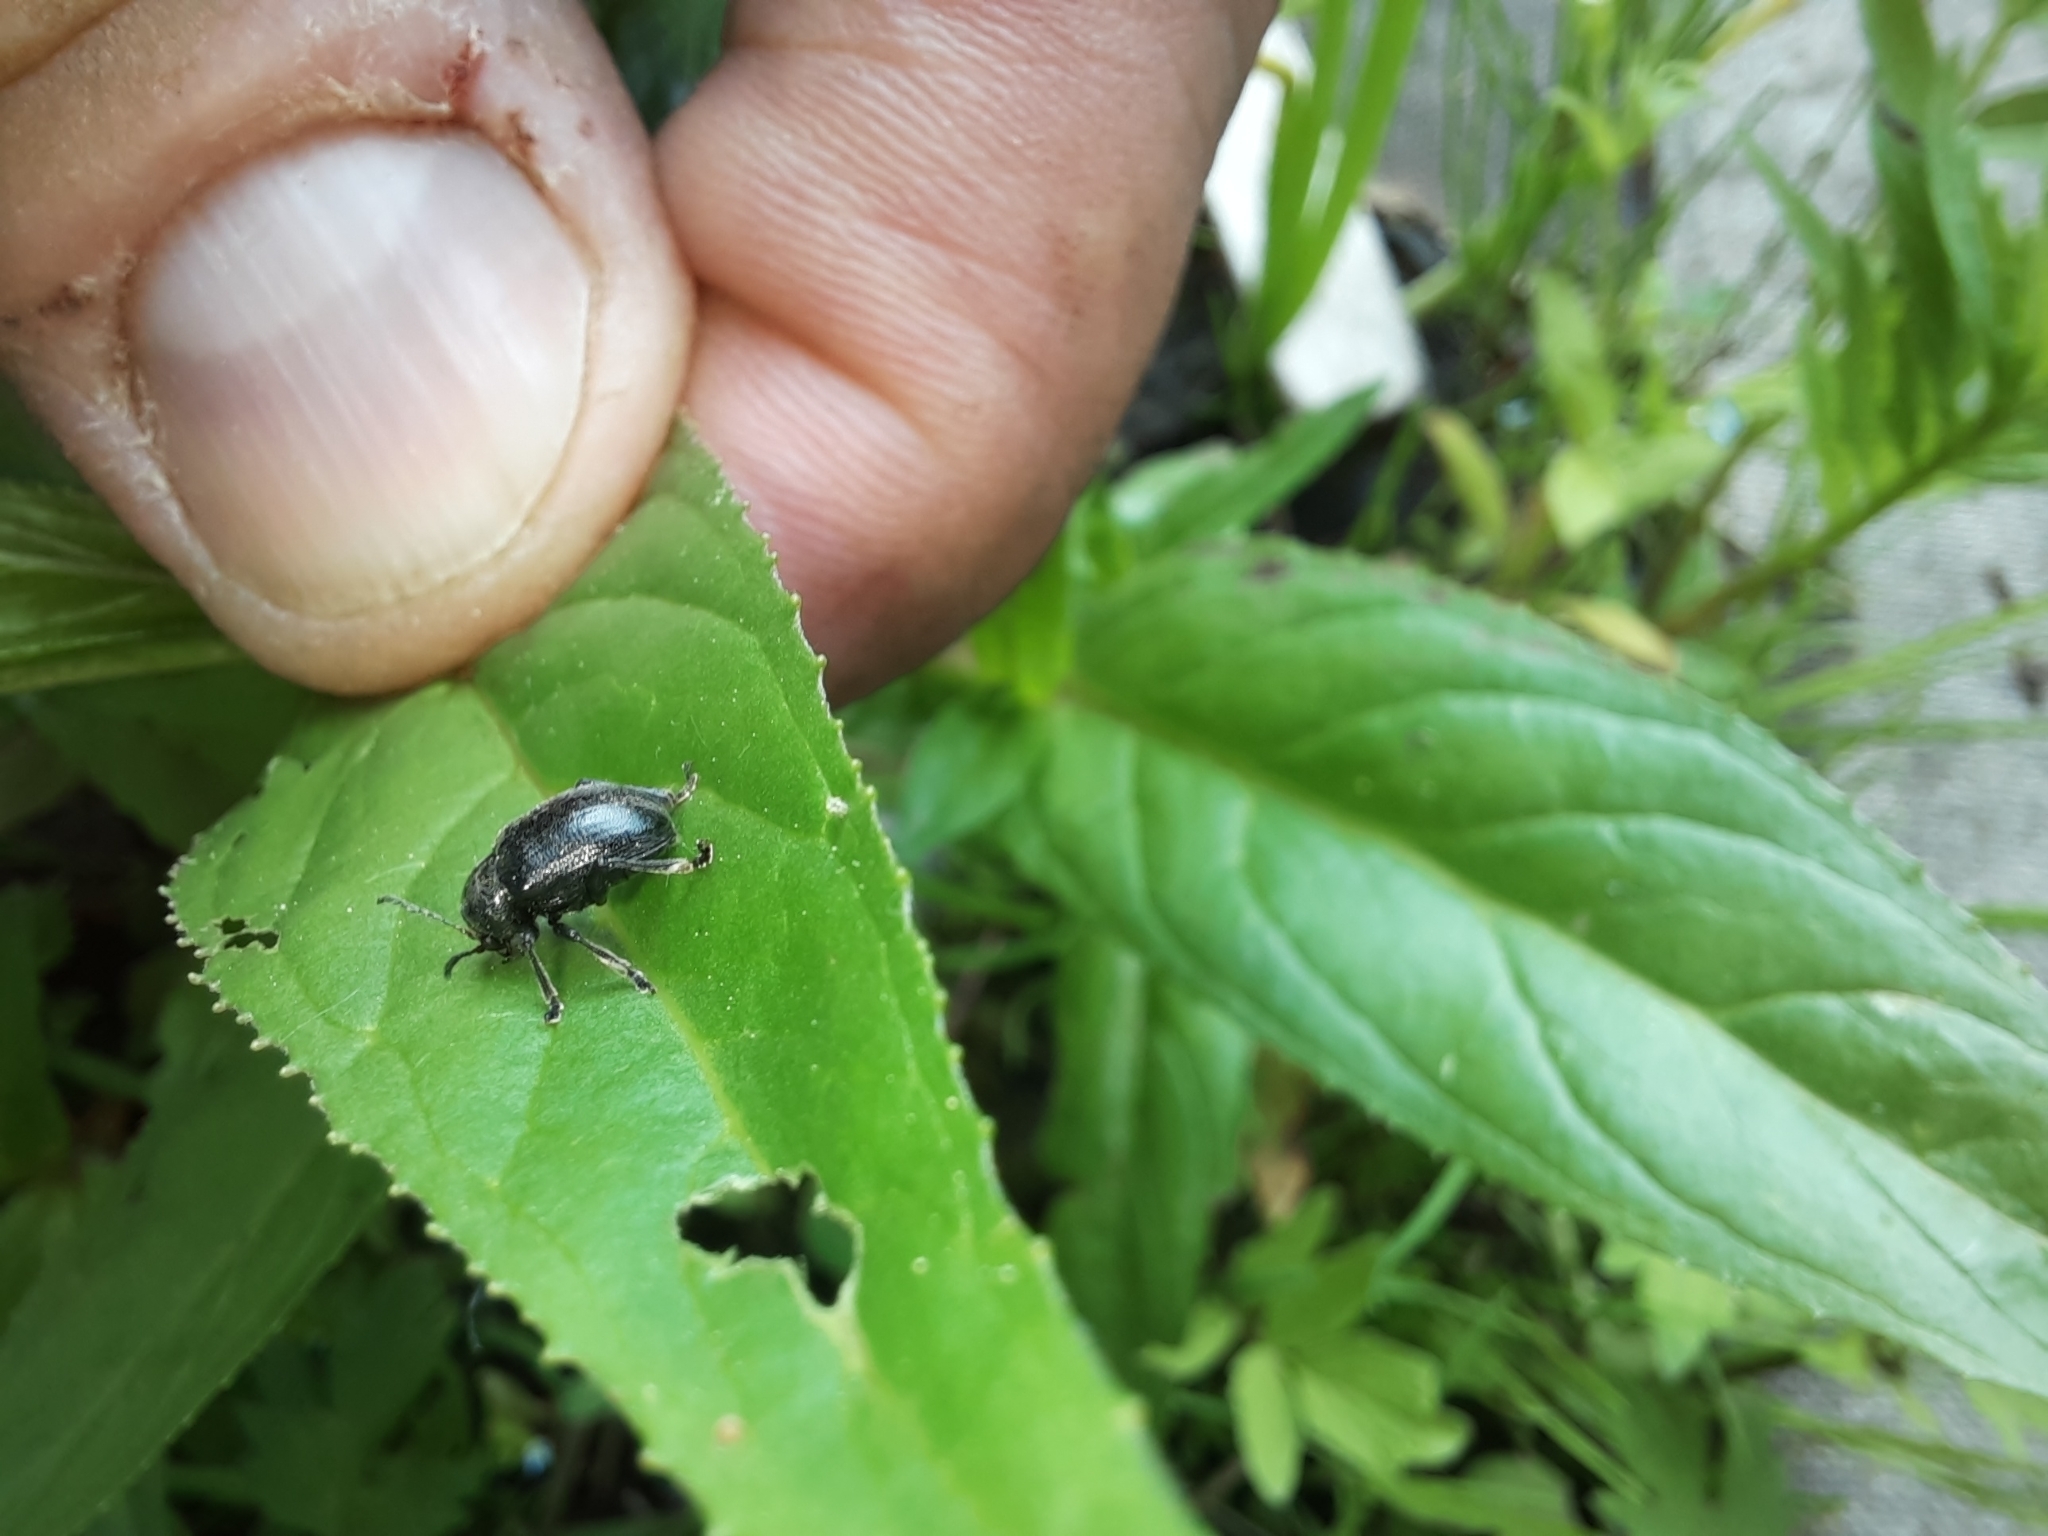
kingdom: Animalia
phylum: Arthropoda
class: Insecta
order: Coleoptera
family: Chrysomelidae
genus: Bromius
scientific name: Bromius obscurus
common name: Western grape rootworm
